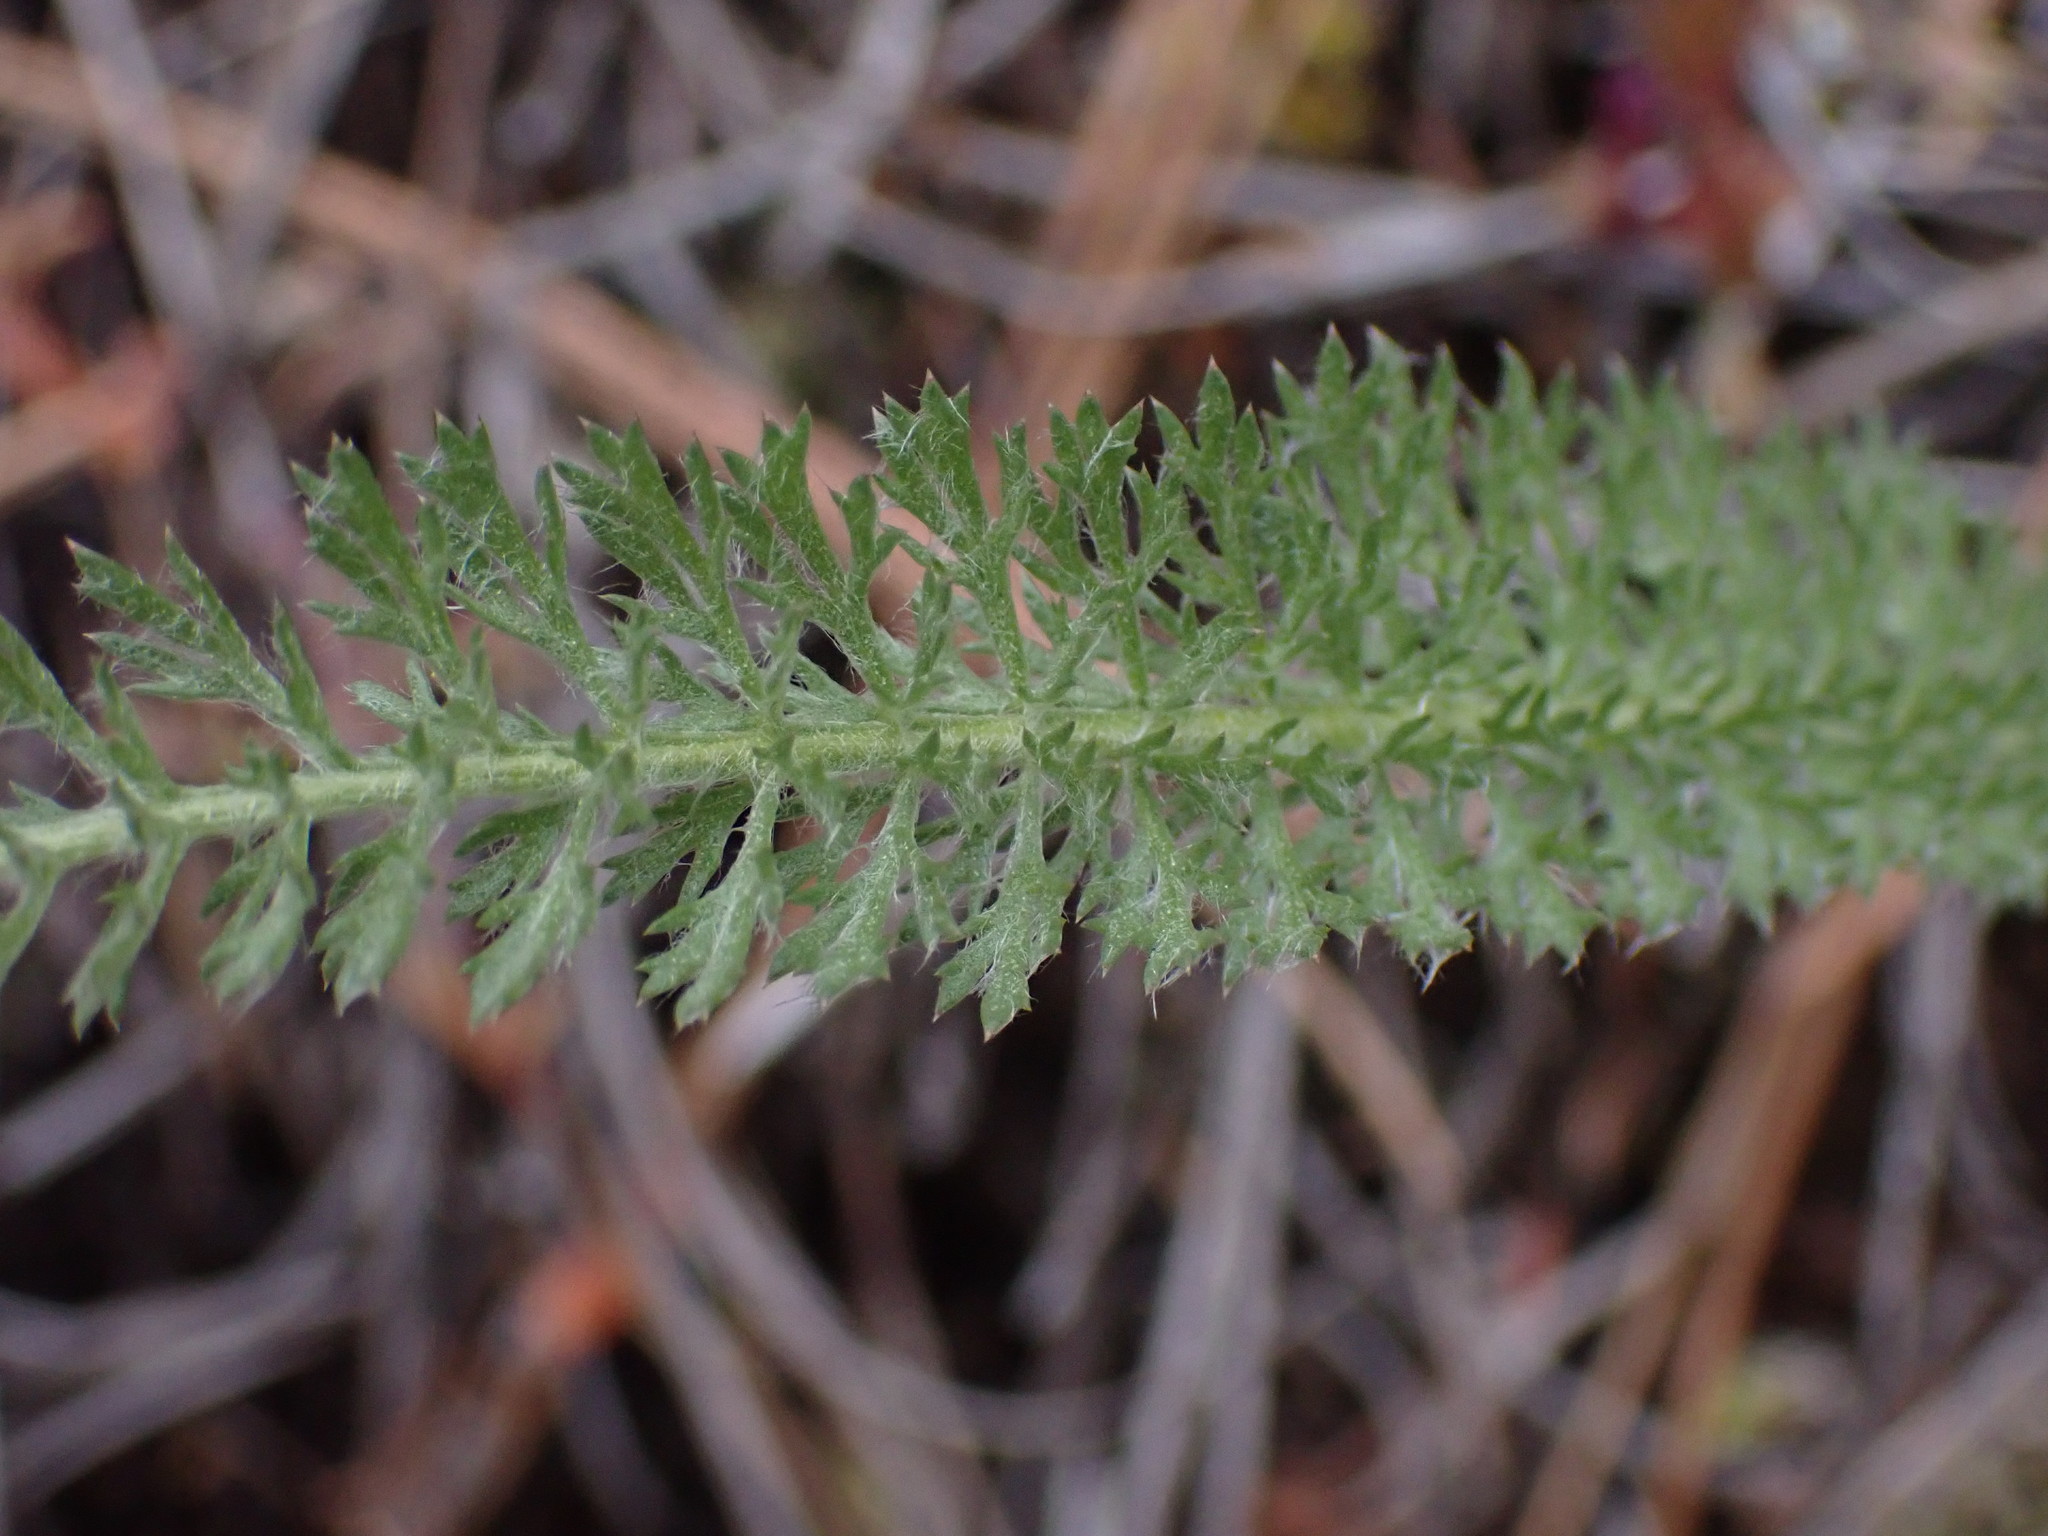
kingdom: Plantae
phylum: Tracheophyta
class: Magnoliopsida
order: Asterales
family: Asteraceae
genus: Achillea
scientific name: Achillea millefolium
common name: Yarrow
